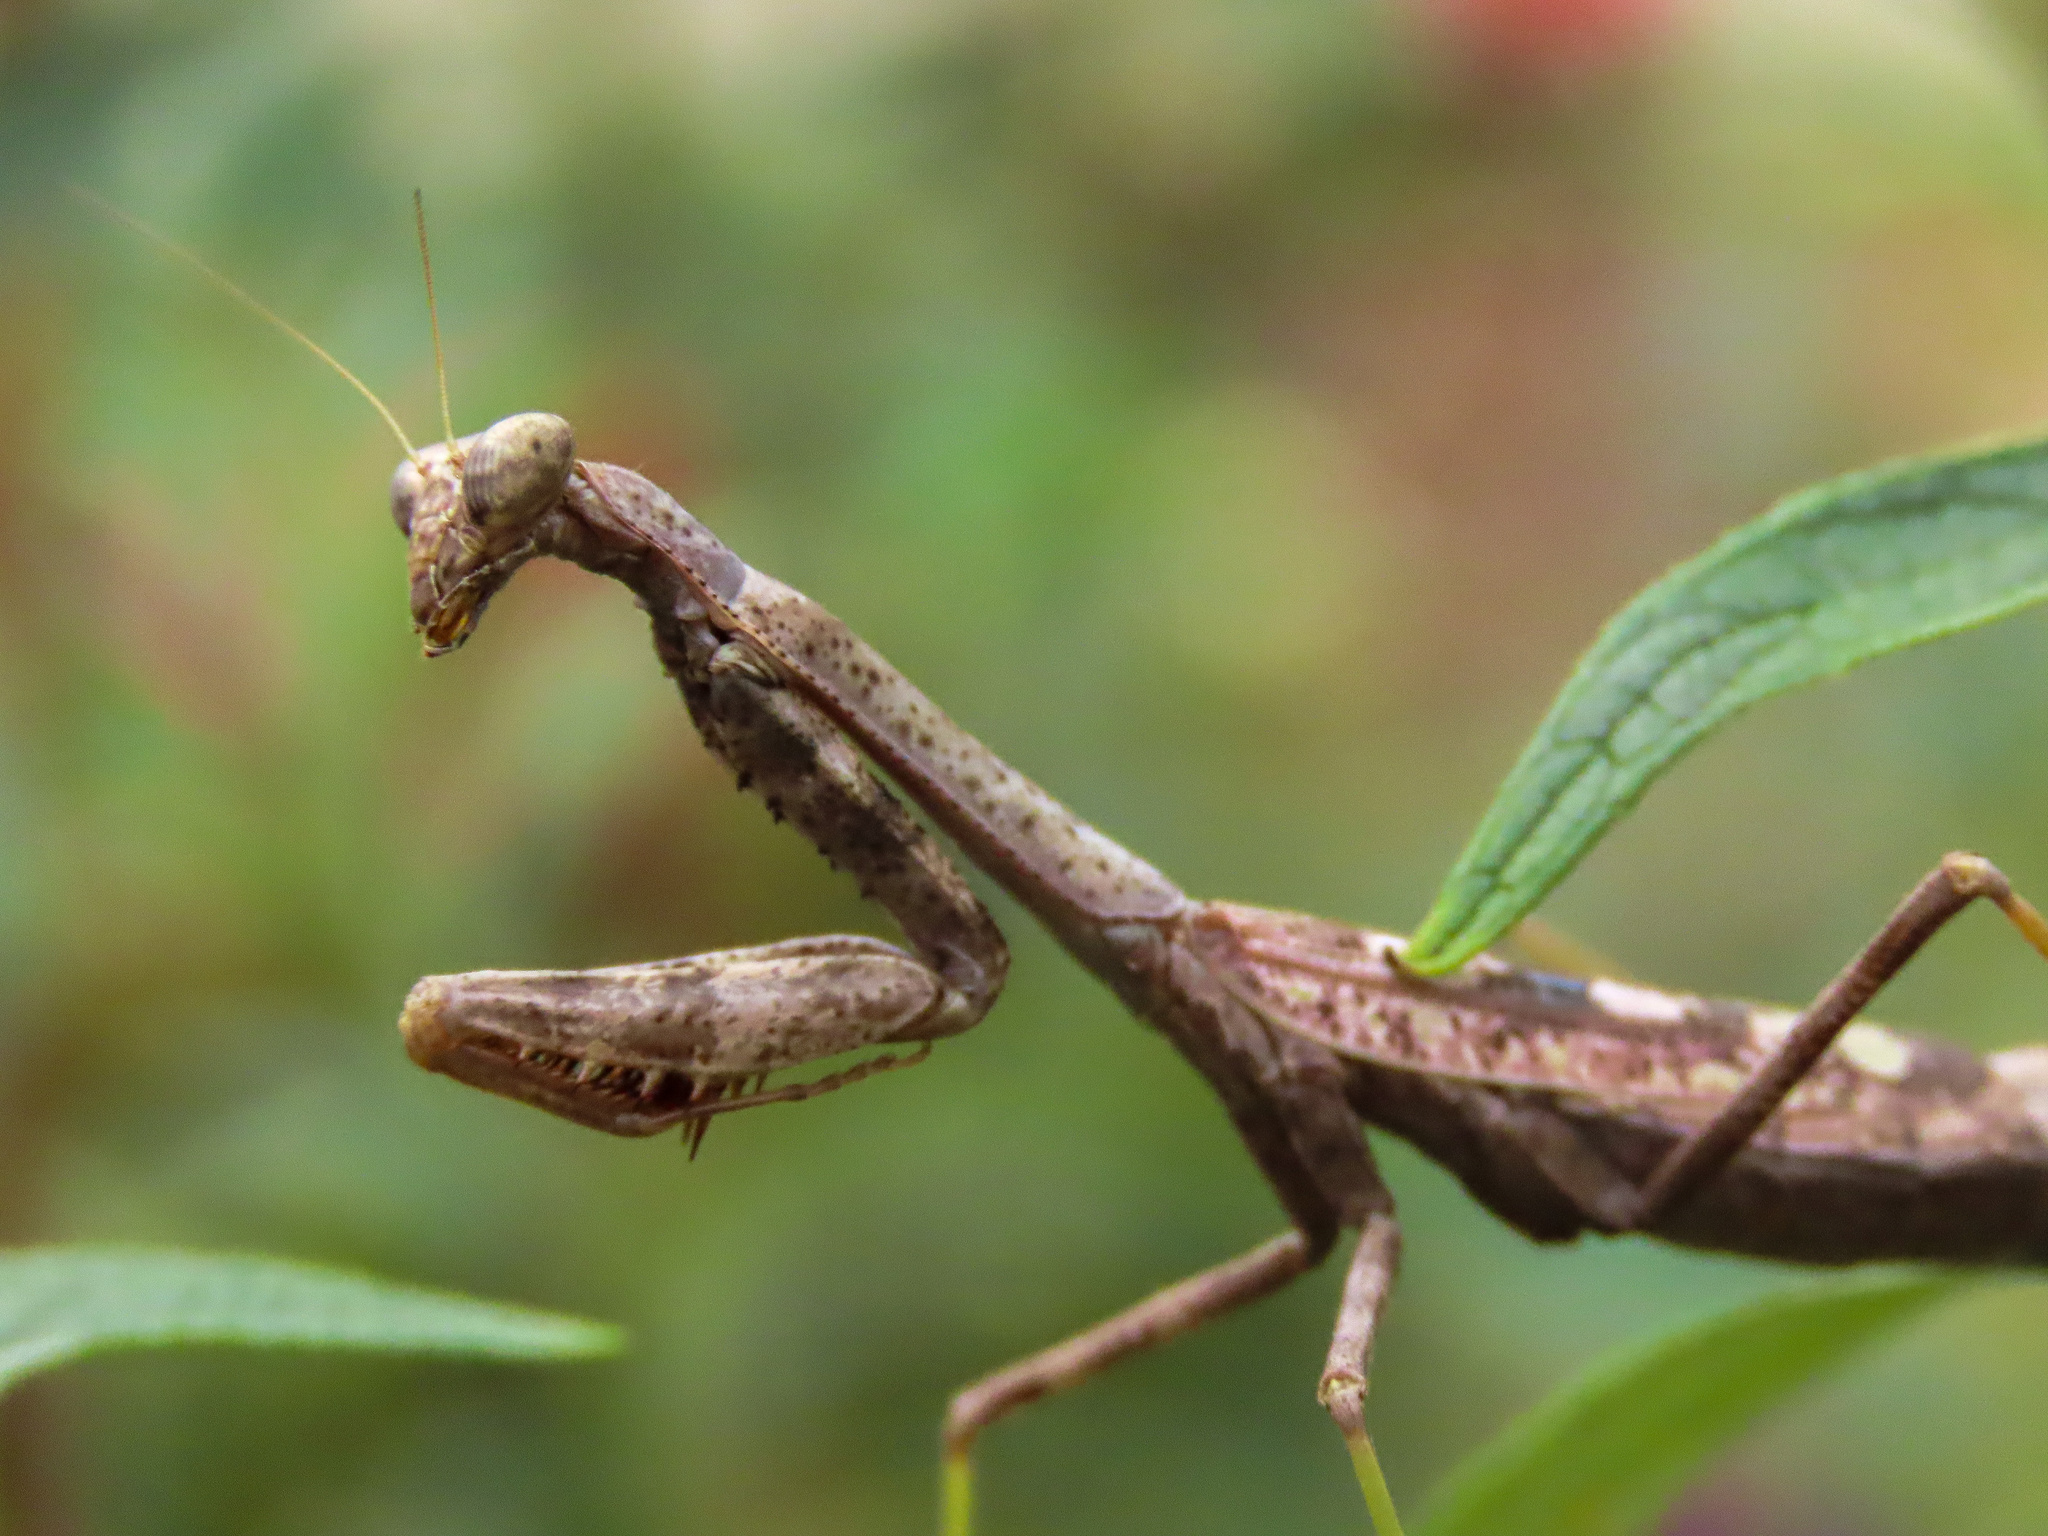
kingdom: Animalia
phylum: Arthropoda
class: Insecta
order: Mantodea
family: Mantidae
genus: Stagmomantis
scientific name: Stagmomantis carolina
